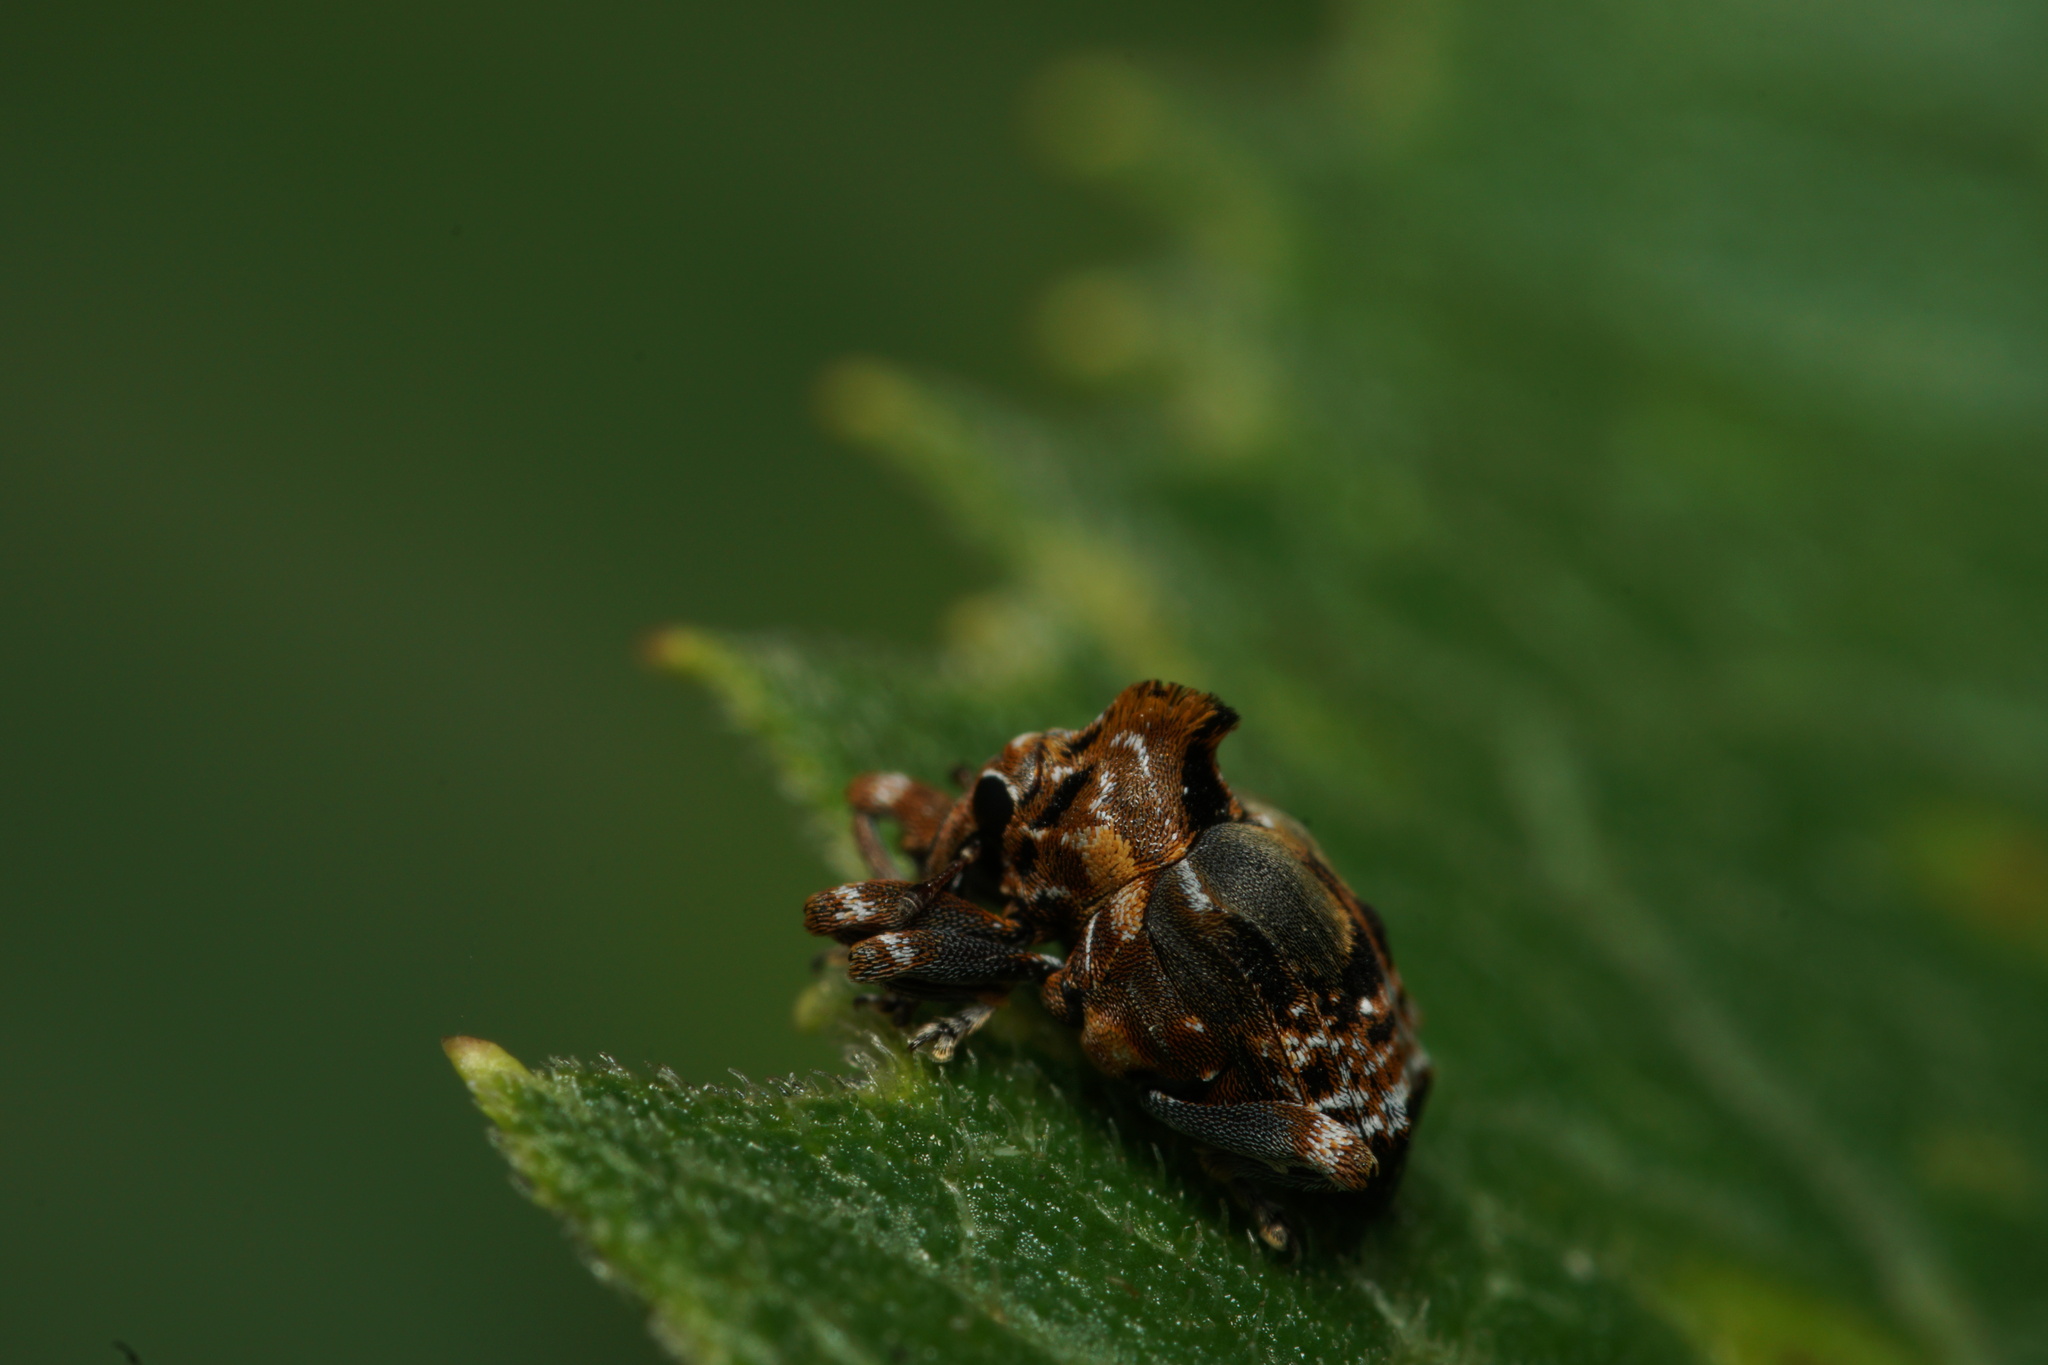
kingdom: Animalia
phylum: Arthropoda
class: Insecta
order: Coleoptera
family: Curculionidae
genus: Pistus
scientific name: Pistus
